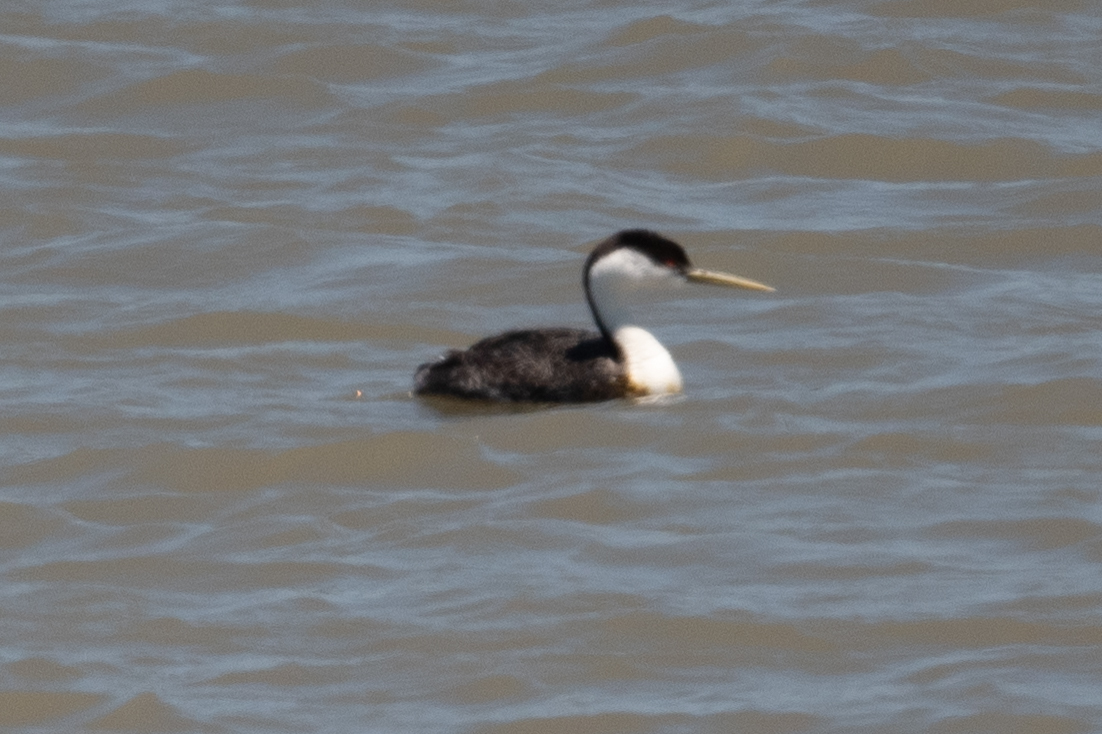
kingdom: Animalia
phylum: Chordata
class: Aves
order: Podicipediformes
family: Podicipedidae
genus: Aechmophorus
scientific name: Aechmophorus occidentalis
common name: Western grebe
